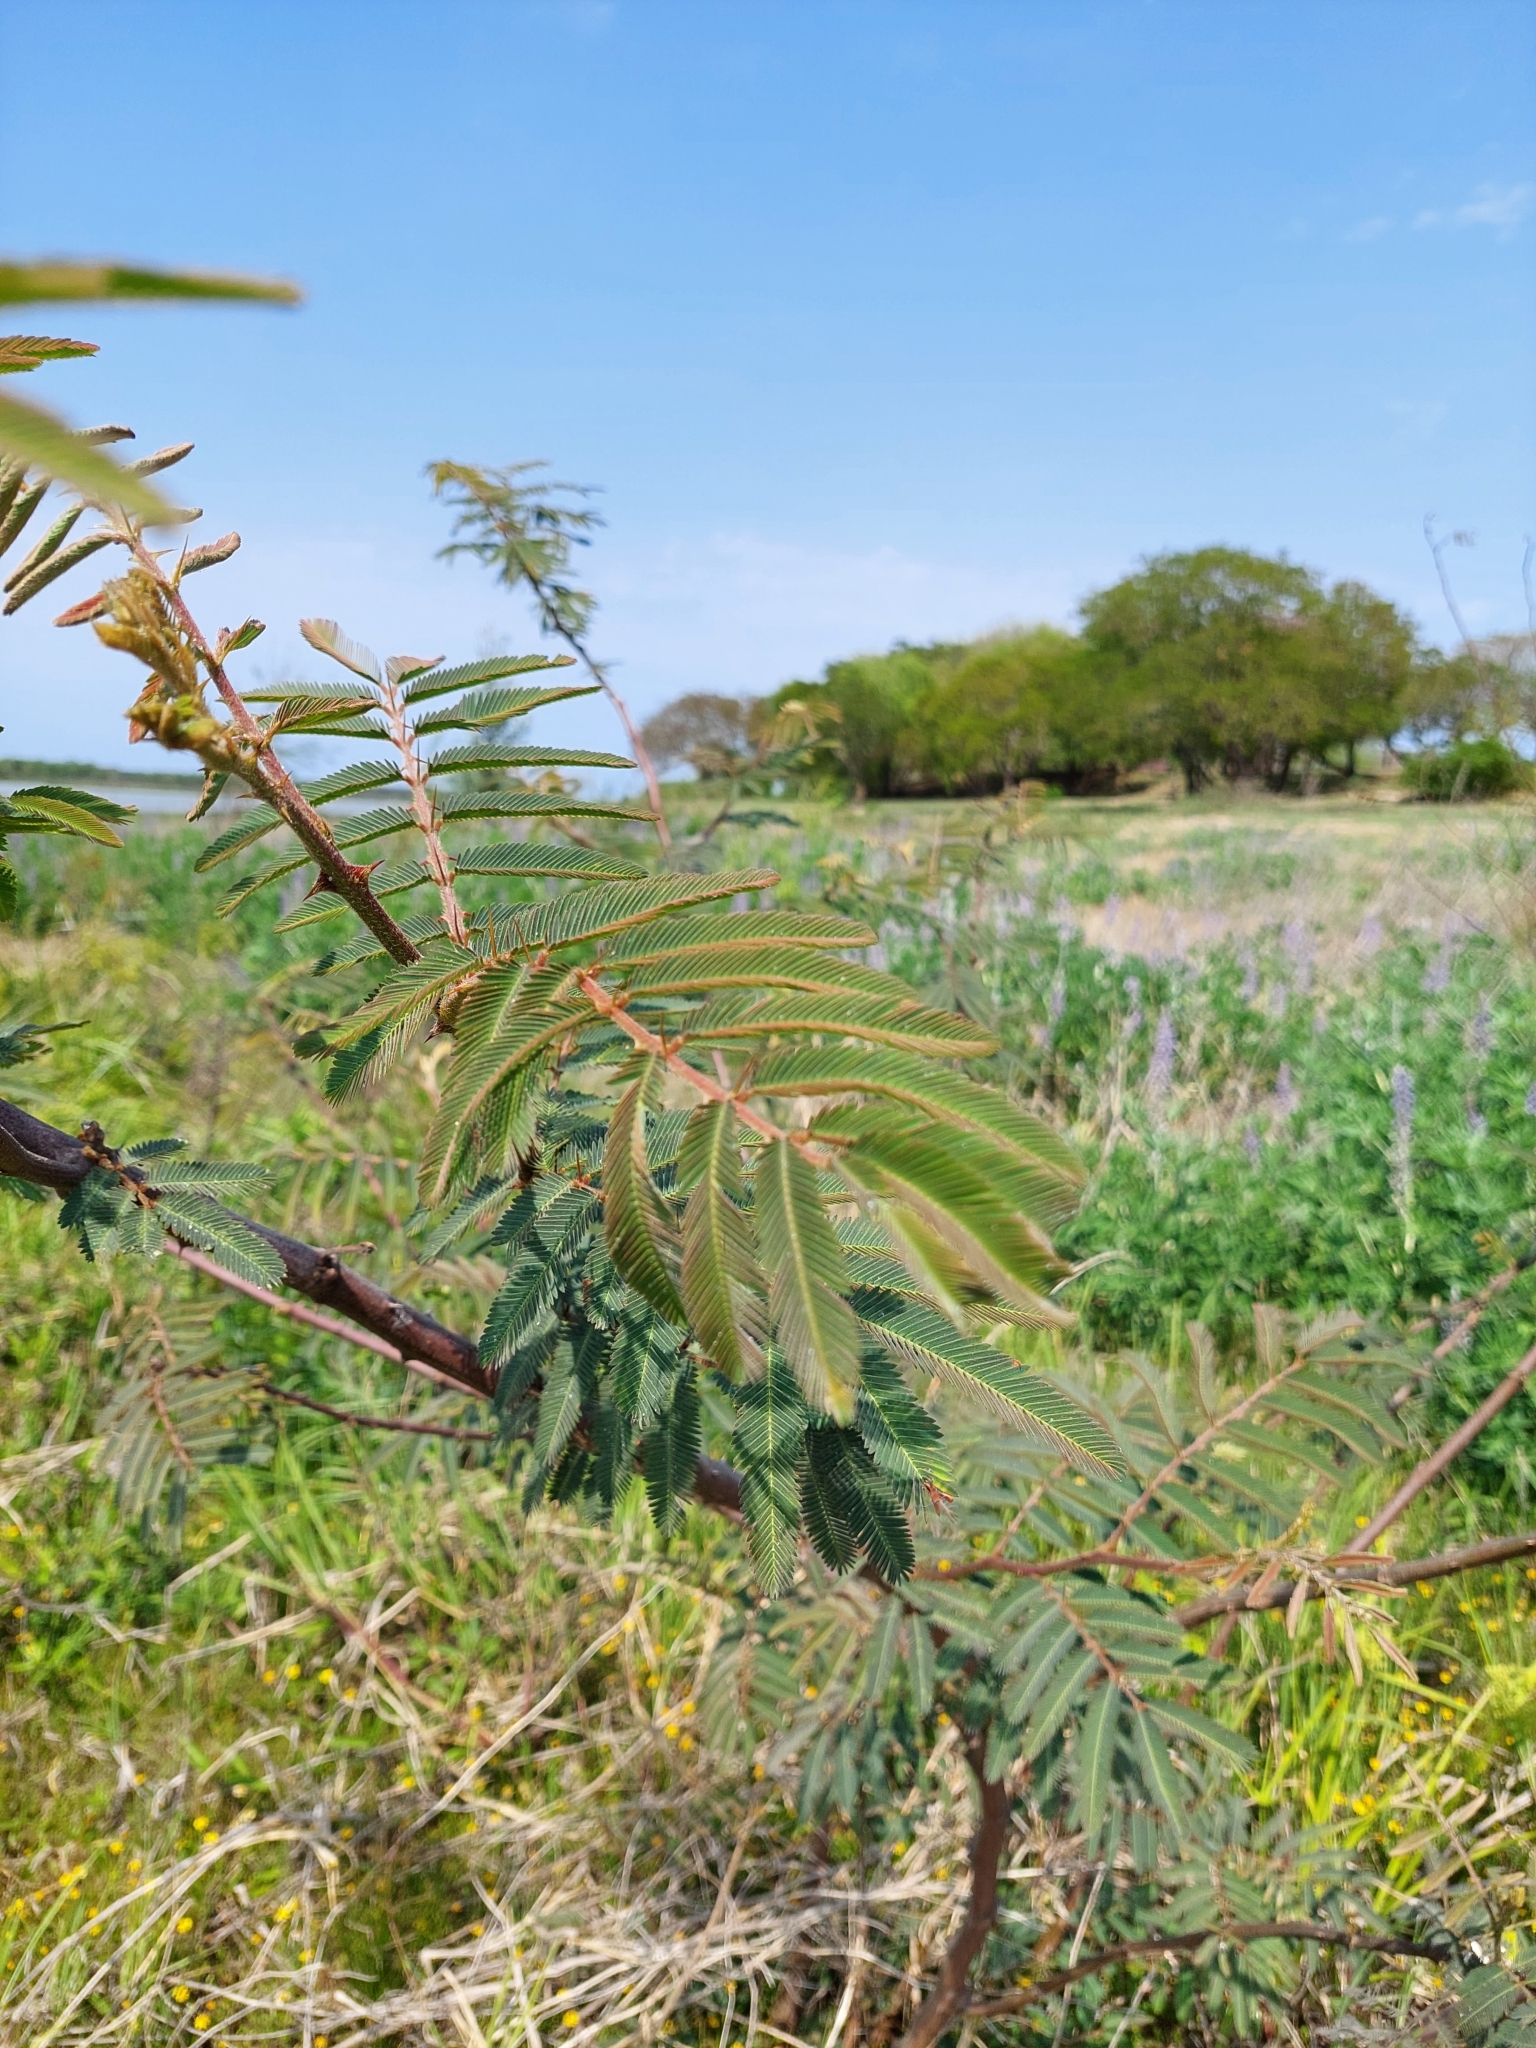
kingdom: Plantae
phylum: Tracheophyta
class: Magnoliopsida
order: Fabales
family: Fabaceae
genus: Mimosa
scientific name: Mimosa pigra
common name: Black mimosa
